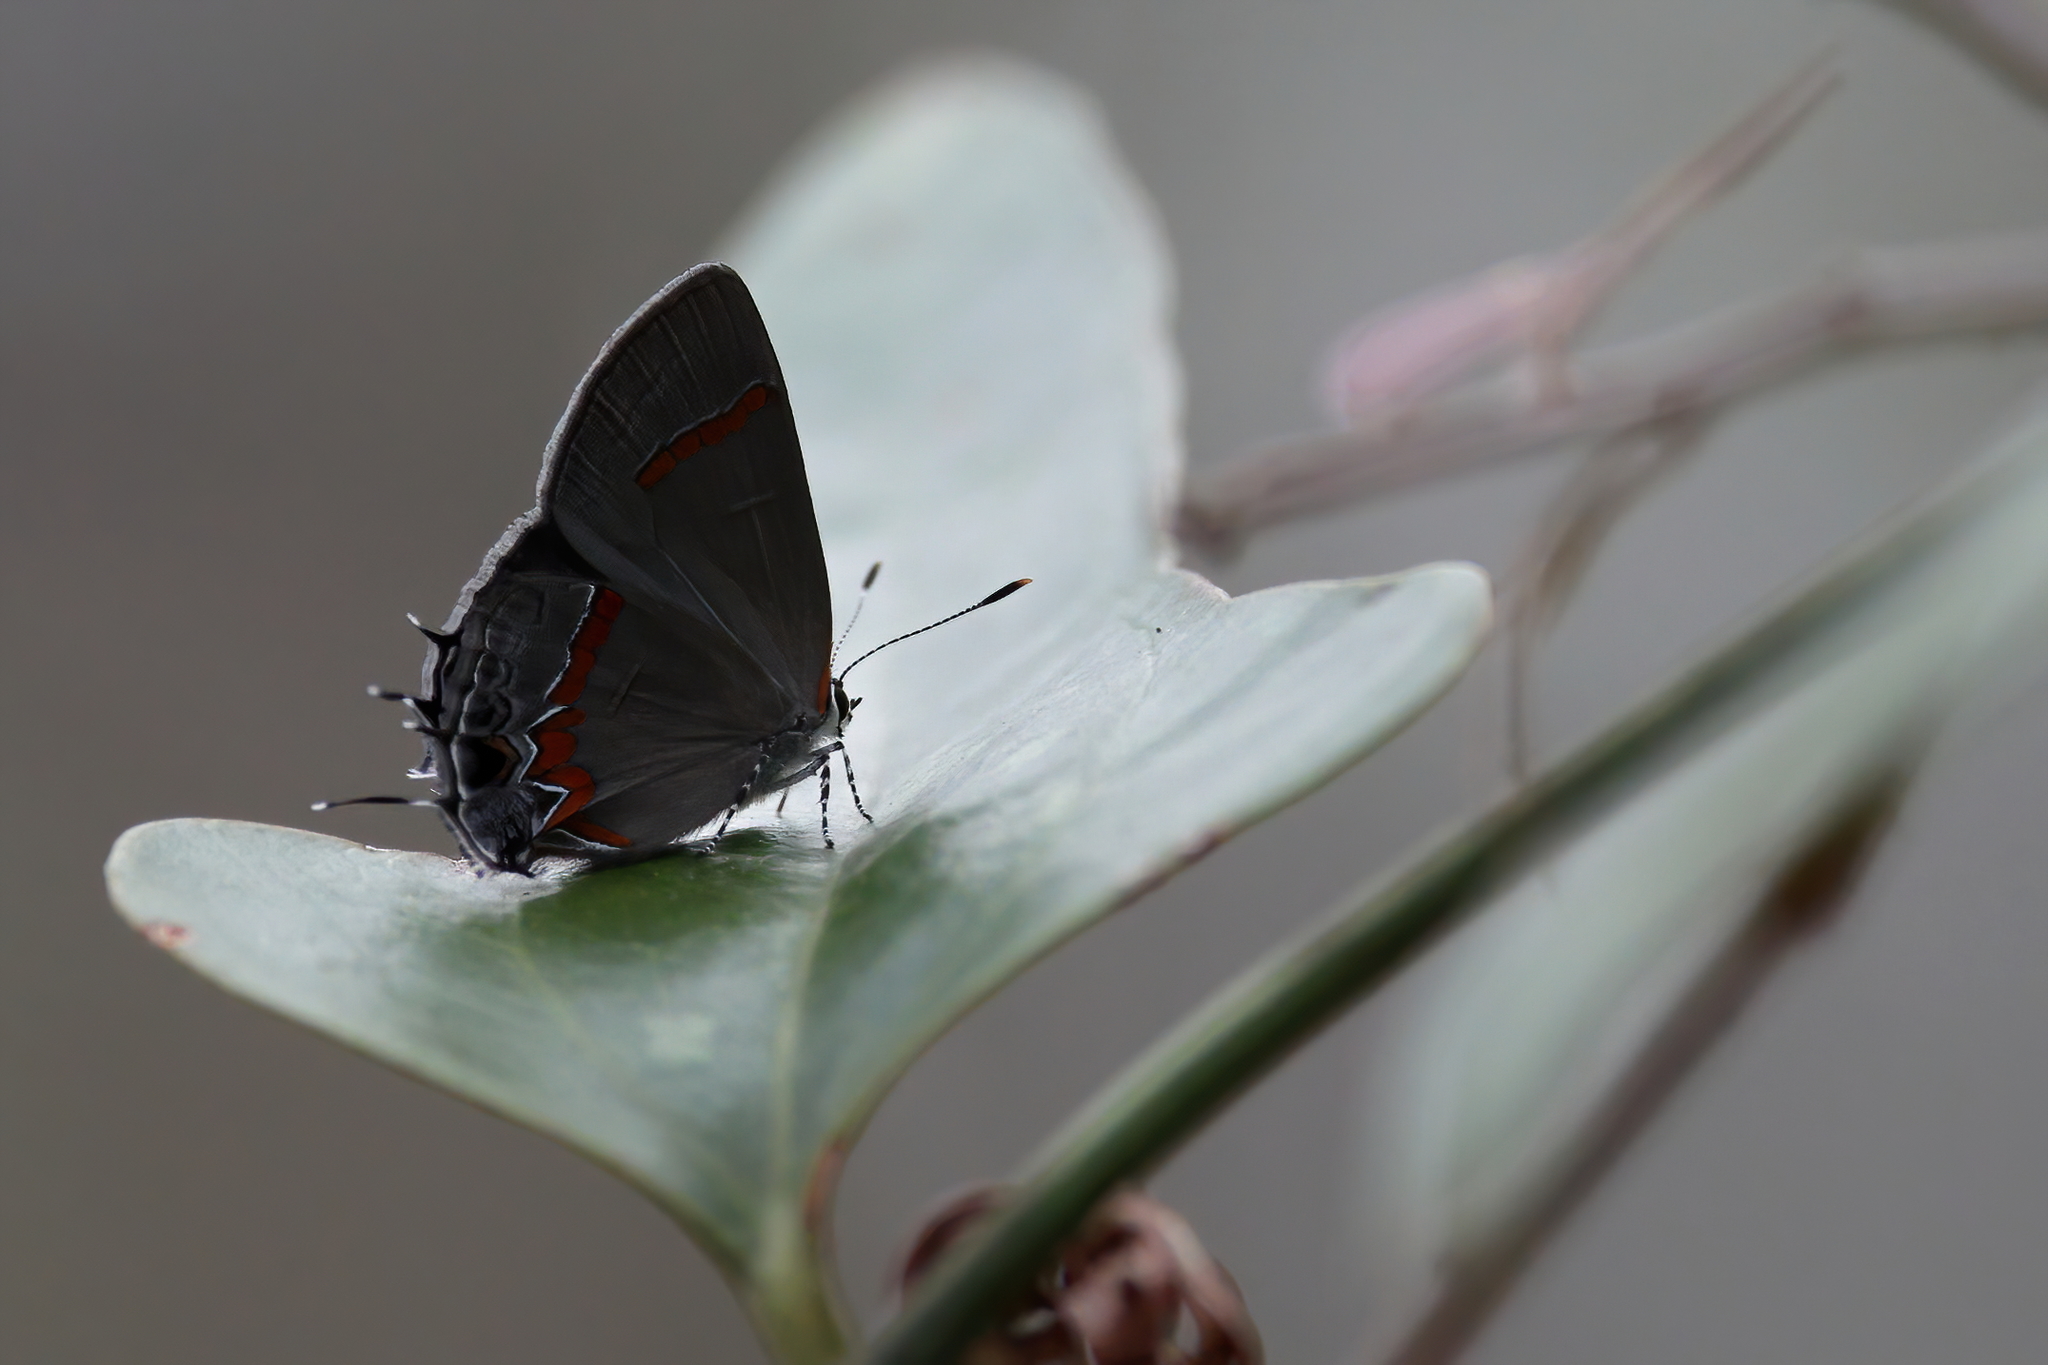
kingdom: Animalia
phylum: Arthropoda
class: Insecta
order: Lepidoptera
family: Lycaenidae
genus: Calycopis
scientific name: Calycopis cecrops
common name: Red-banded hairstreak
